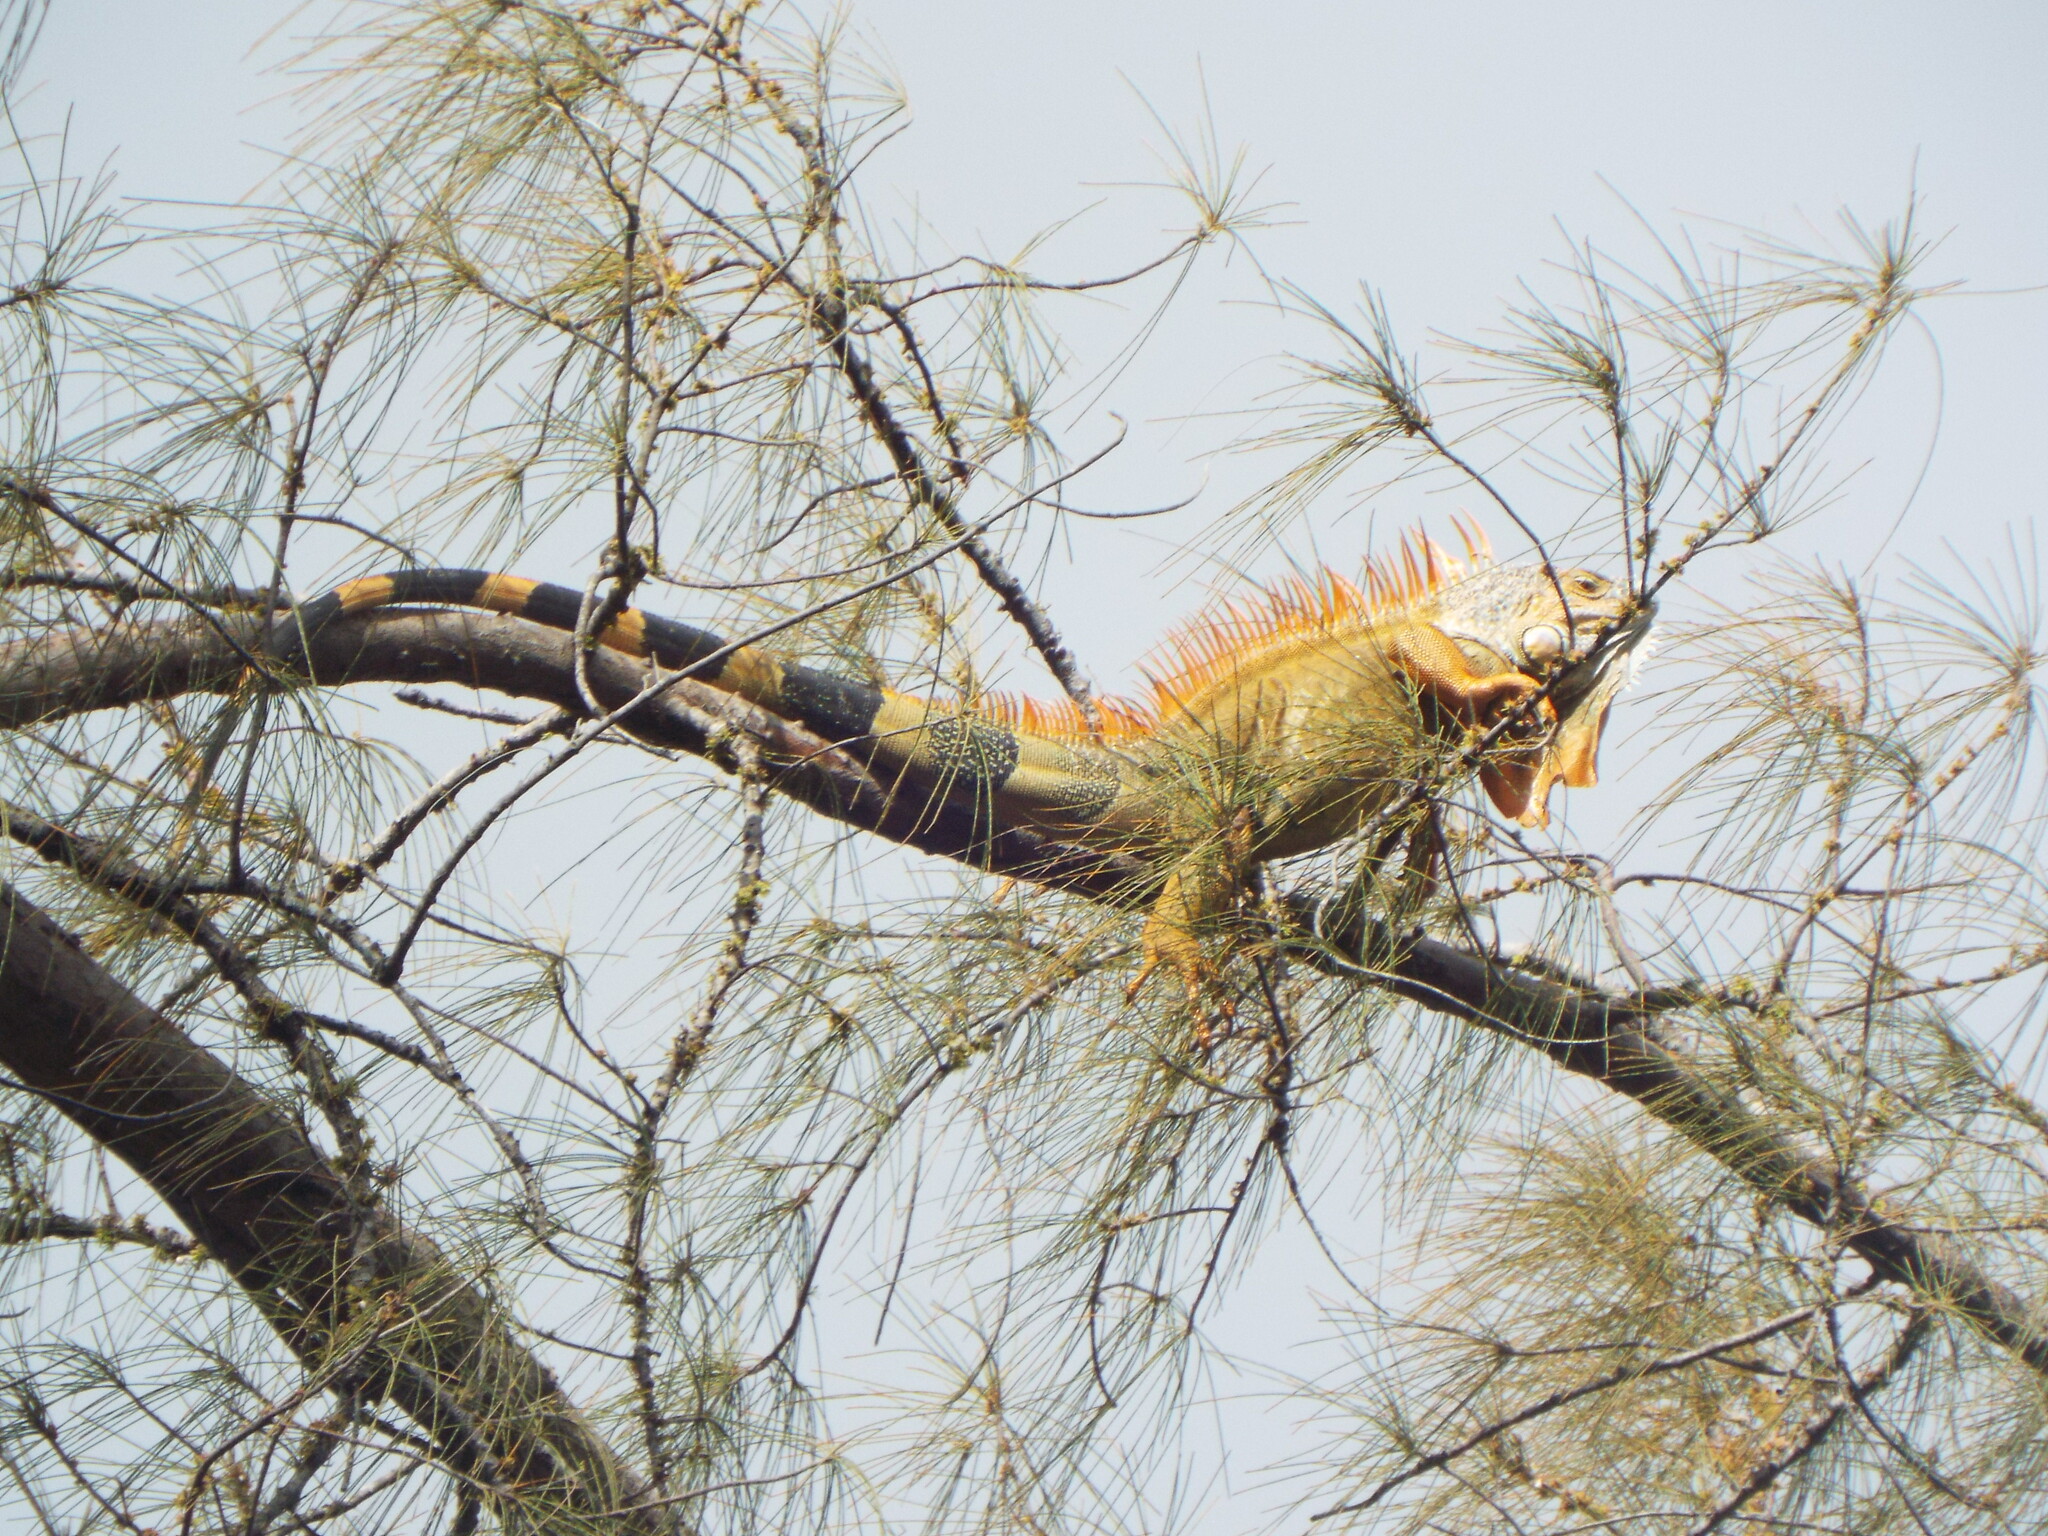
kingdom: Animalia
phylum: Chordata
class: Squamata
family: Iguanidae
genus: Iguana
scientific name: Iguana iguana
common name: Green iguana
